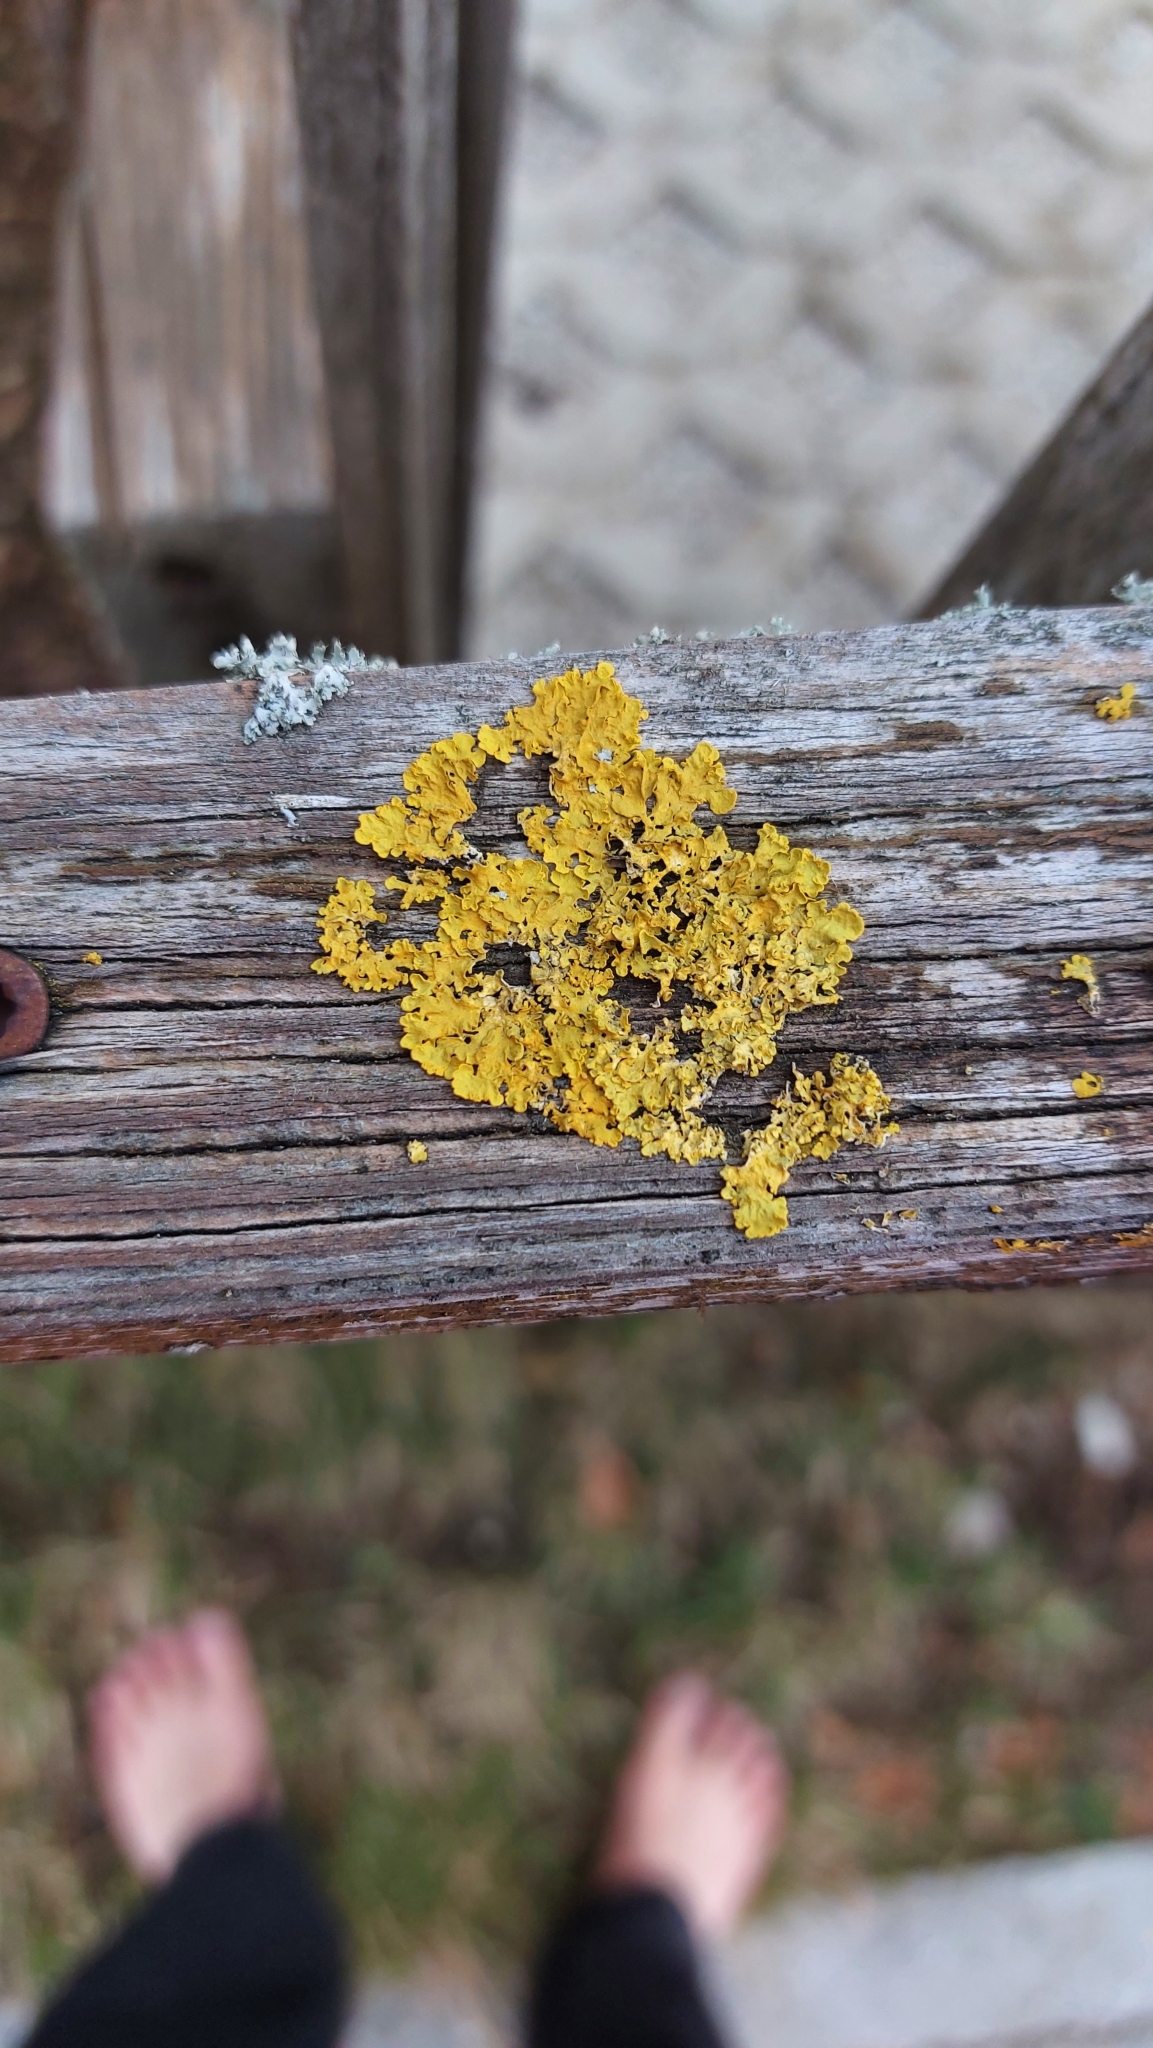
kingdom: Fungi
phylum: Ascomycota
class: Lecanoromycetes
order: Teloschistales
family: Teloschistaceae
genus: Xanthoria
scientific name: Xanthoria parietina
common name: Common orange lichen
